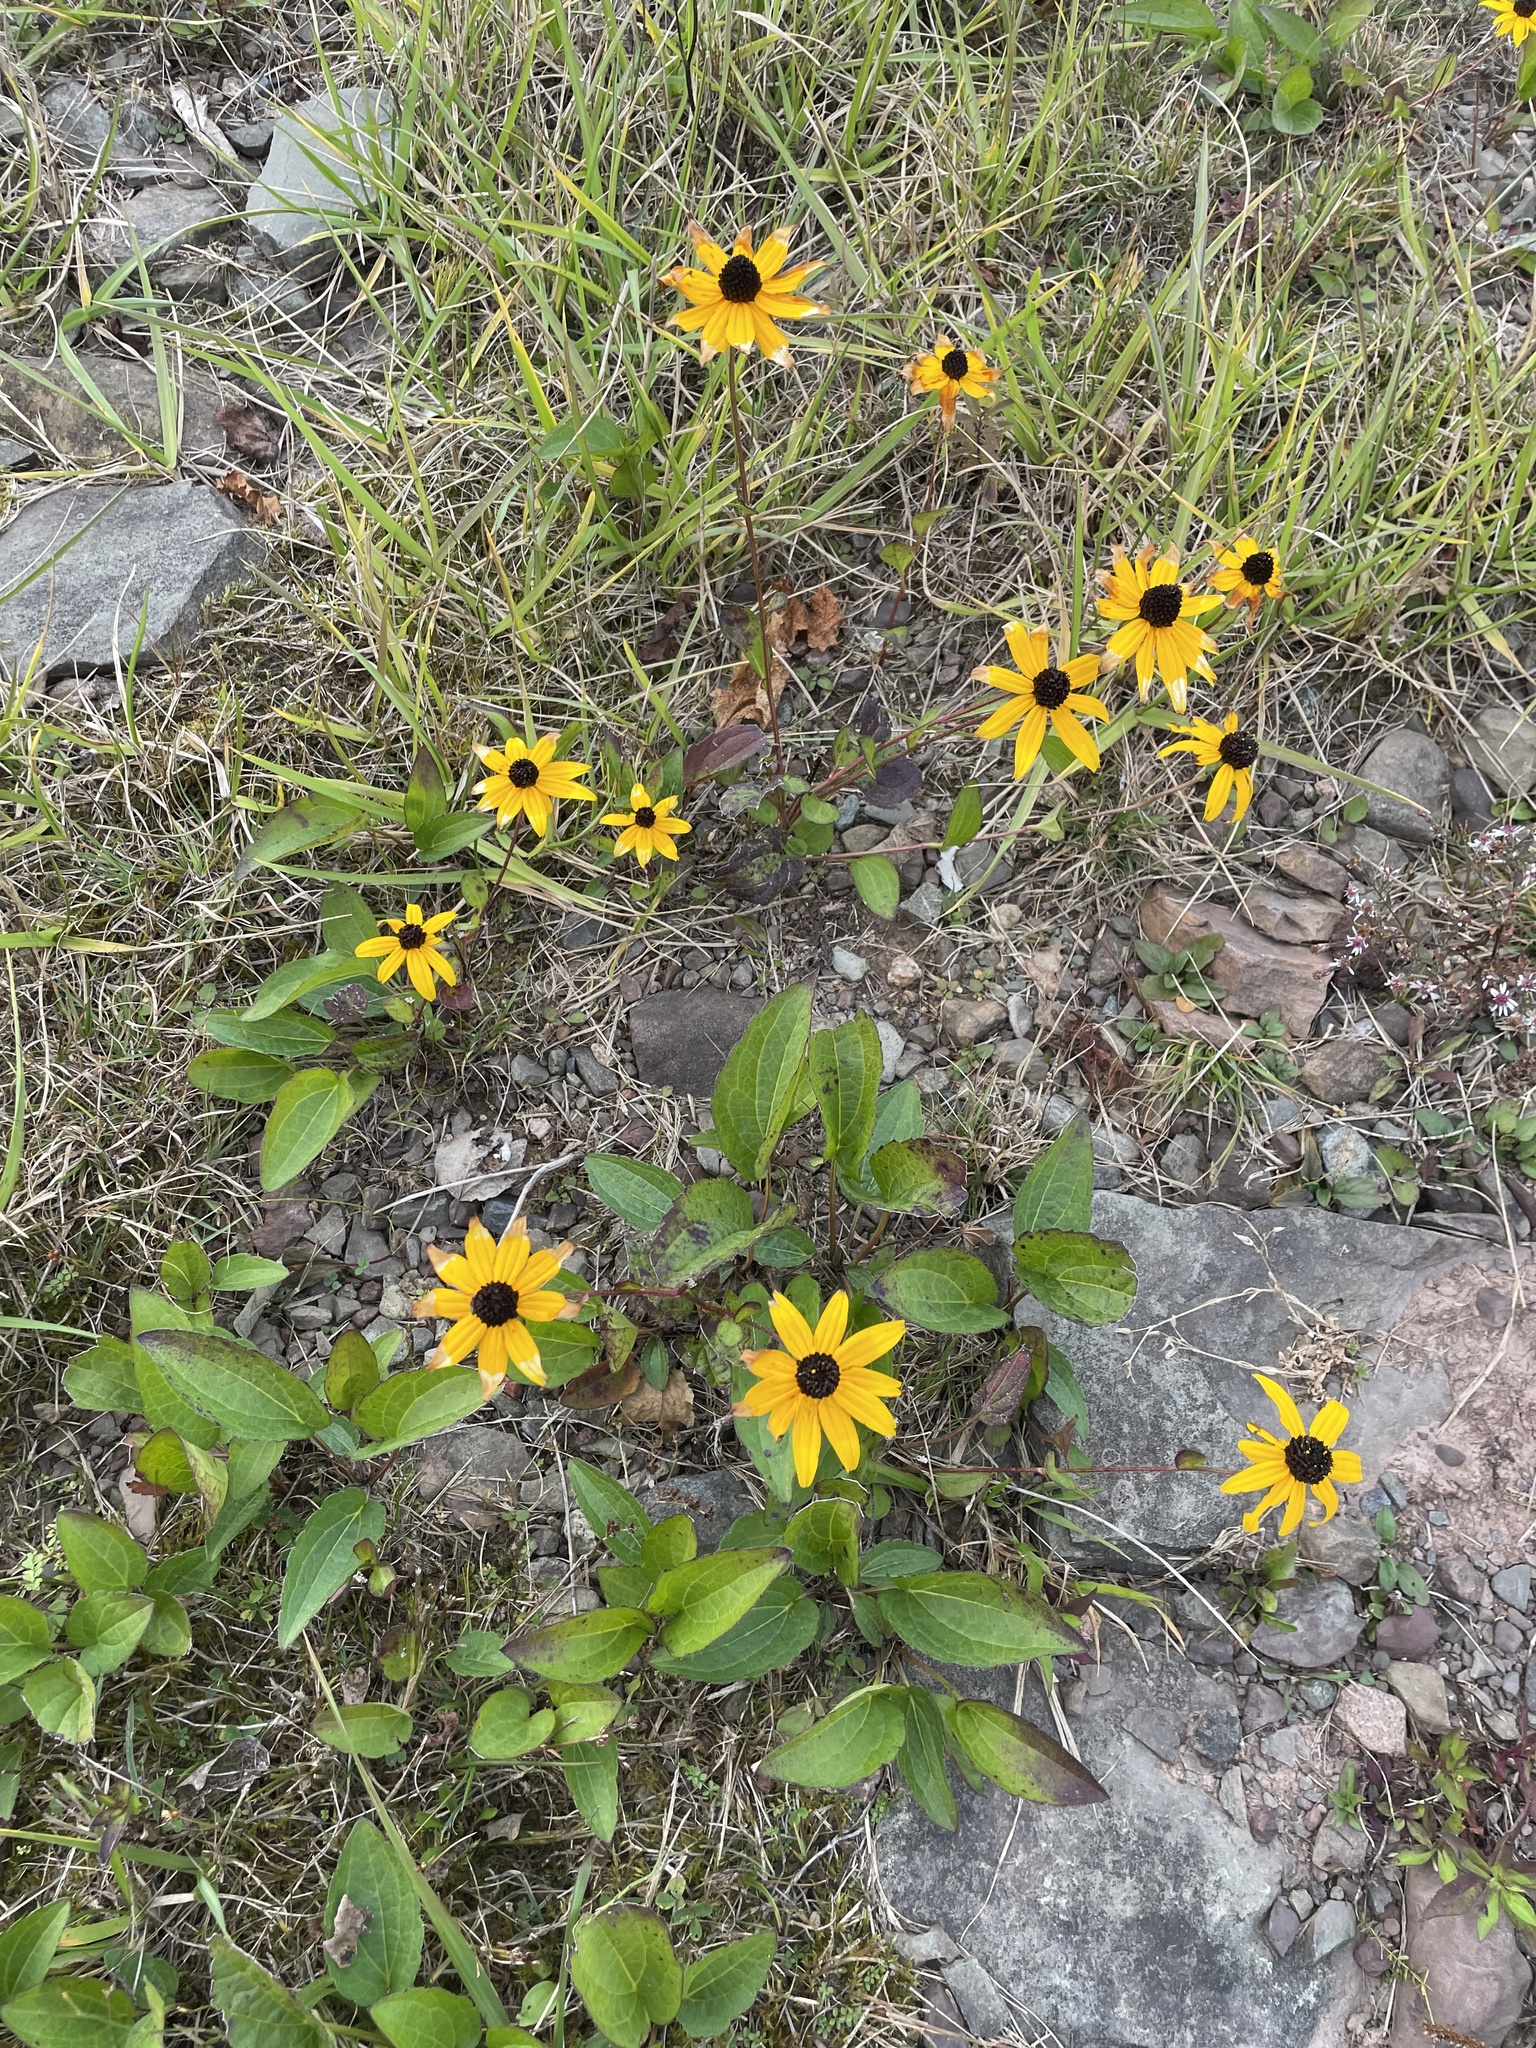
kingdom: Plantae
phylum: Tracheophyta
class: Magnoliopsida
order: Asterales
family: Asteraceae
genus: Rudbeckia
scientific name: Rudbeckia hirta
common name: Black-eyed-susan
